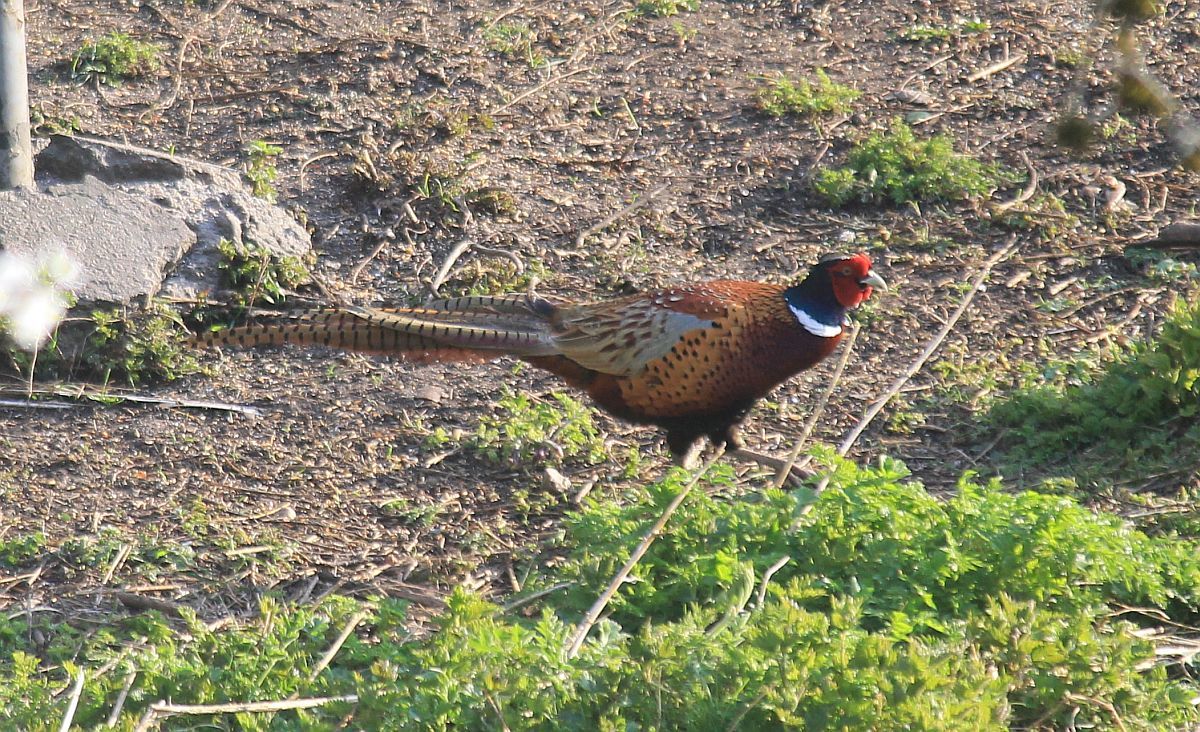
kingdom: Animalia
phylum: Chordata
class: Aves
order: Galliformes
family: Phasianidae
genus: Phasianus
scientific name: Phasianus colchicus
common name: Common pheasant
